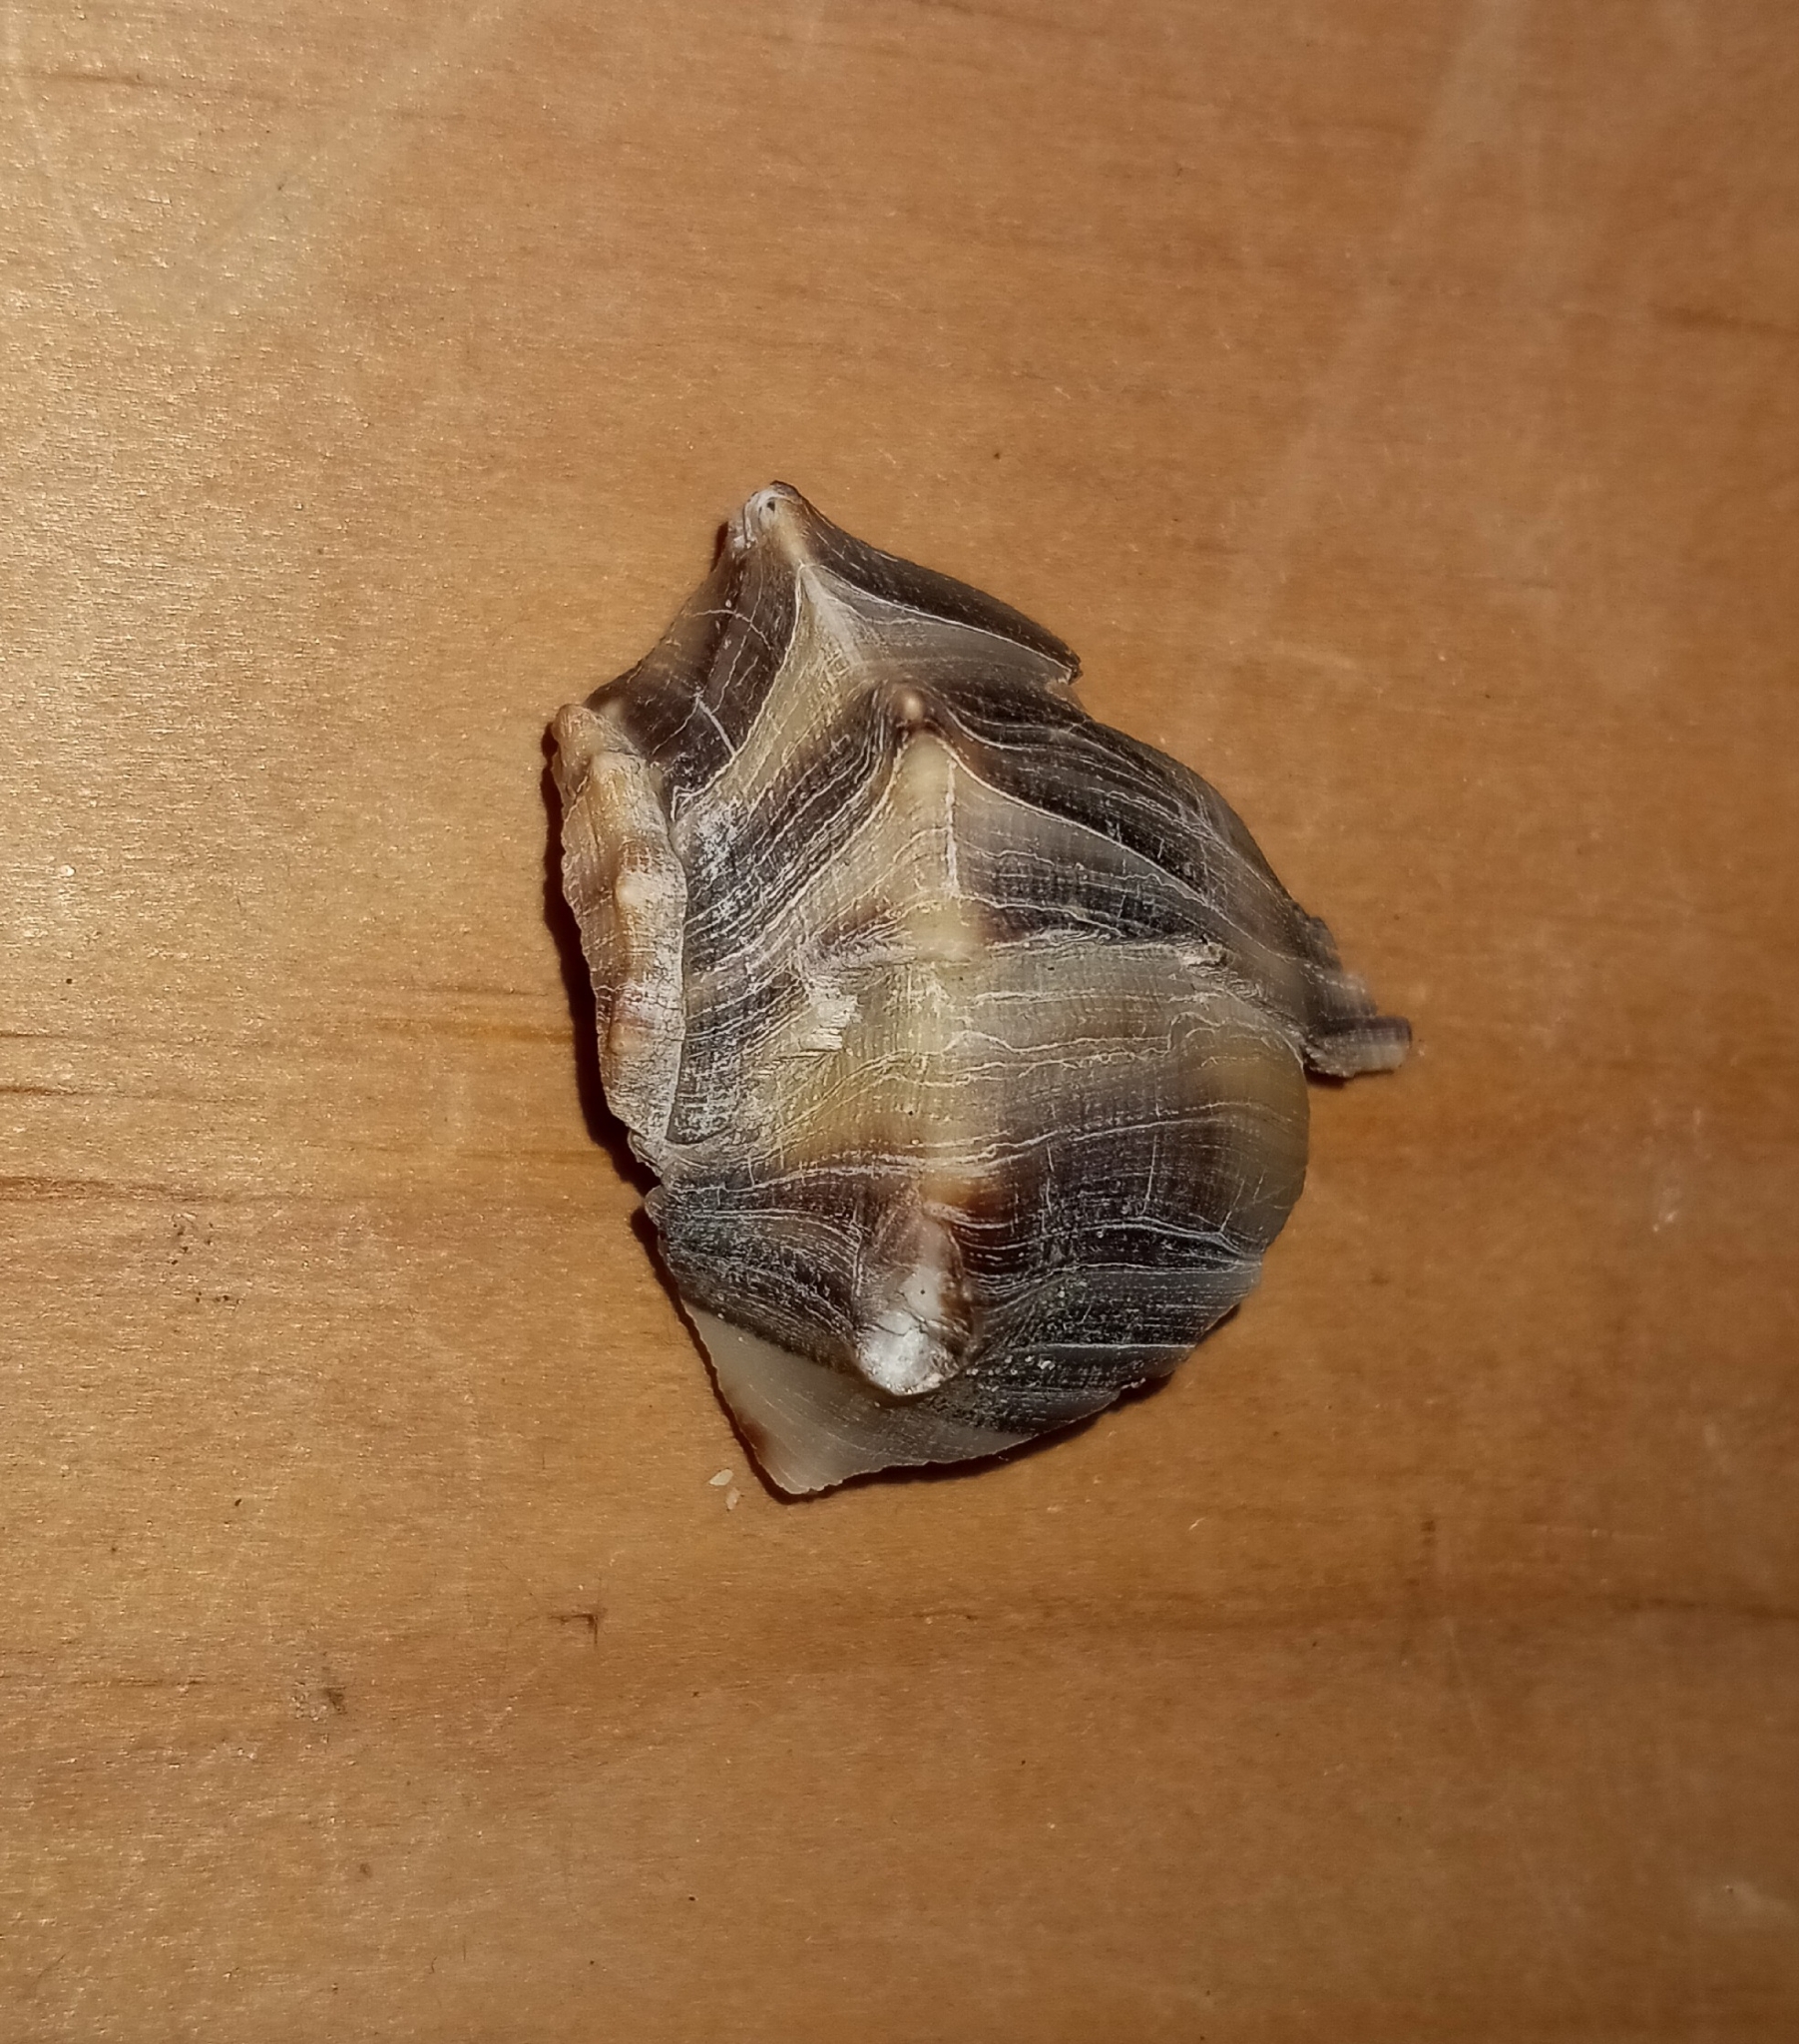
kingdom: Animalia
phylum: Mollusca
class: Gastropoda
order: Neogastropoda
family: Busyconidae
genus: Busycon
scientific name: Busycon carica
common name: Knobbed whelk
